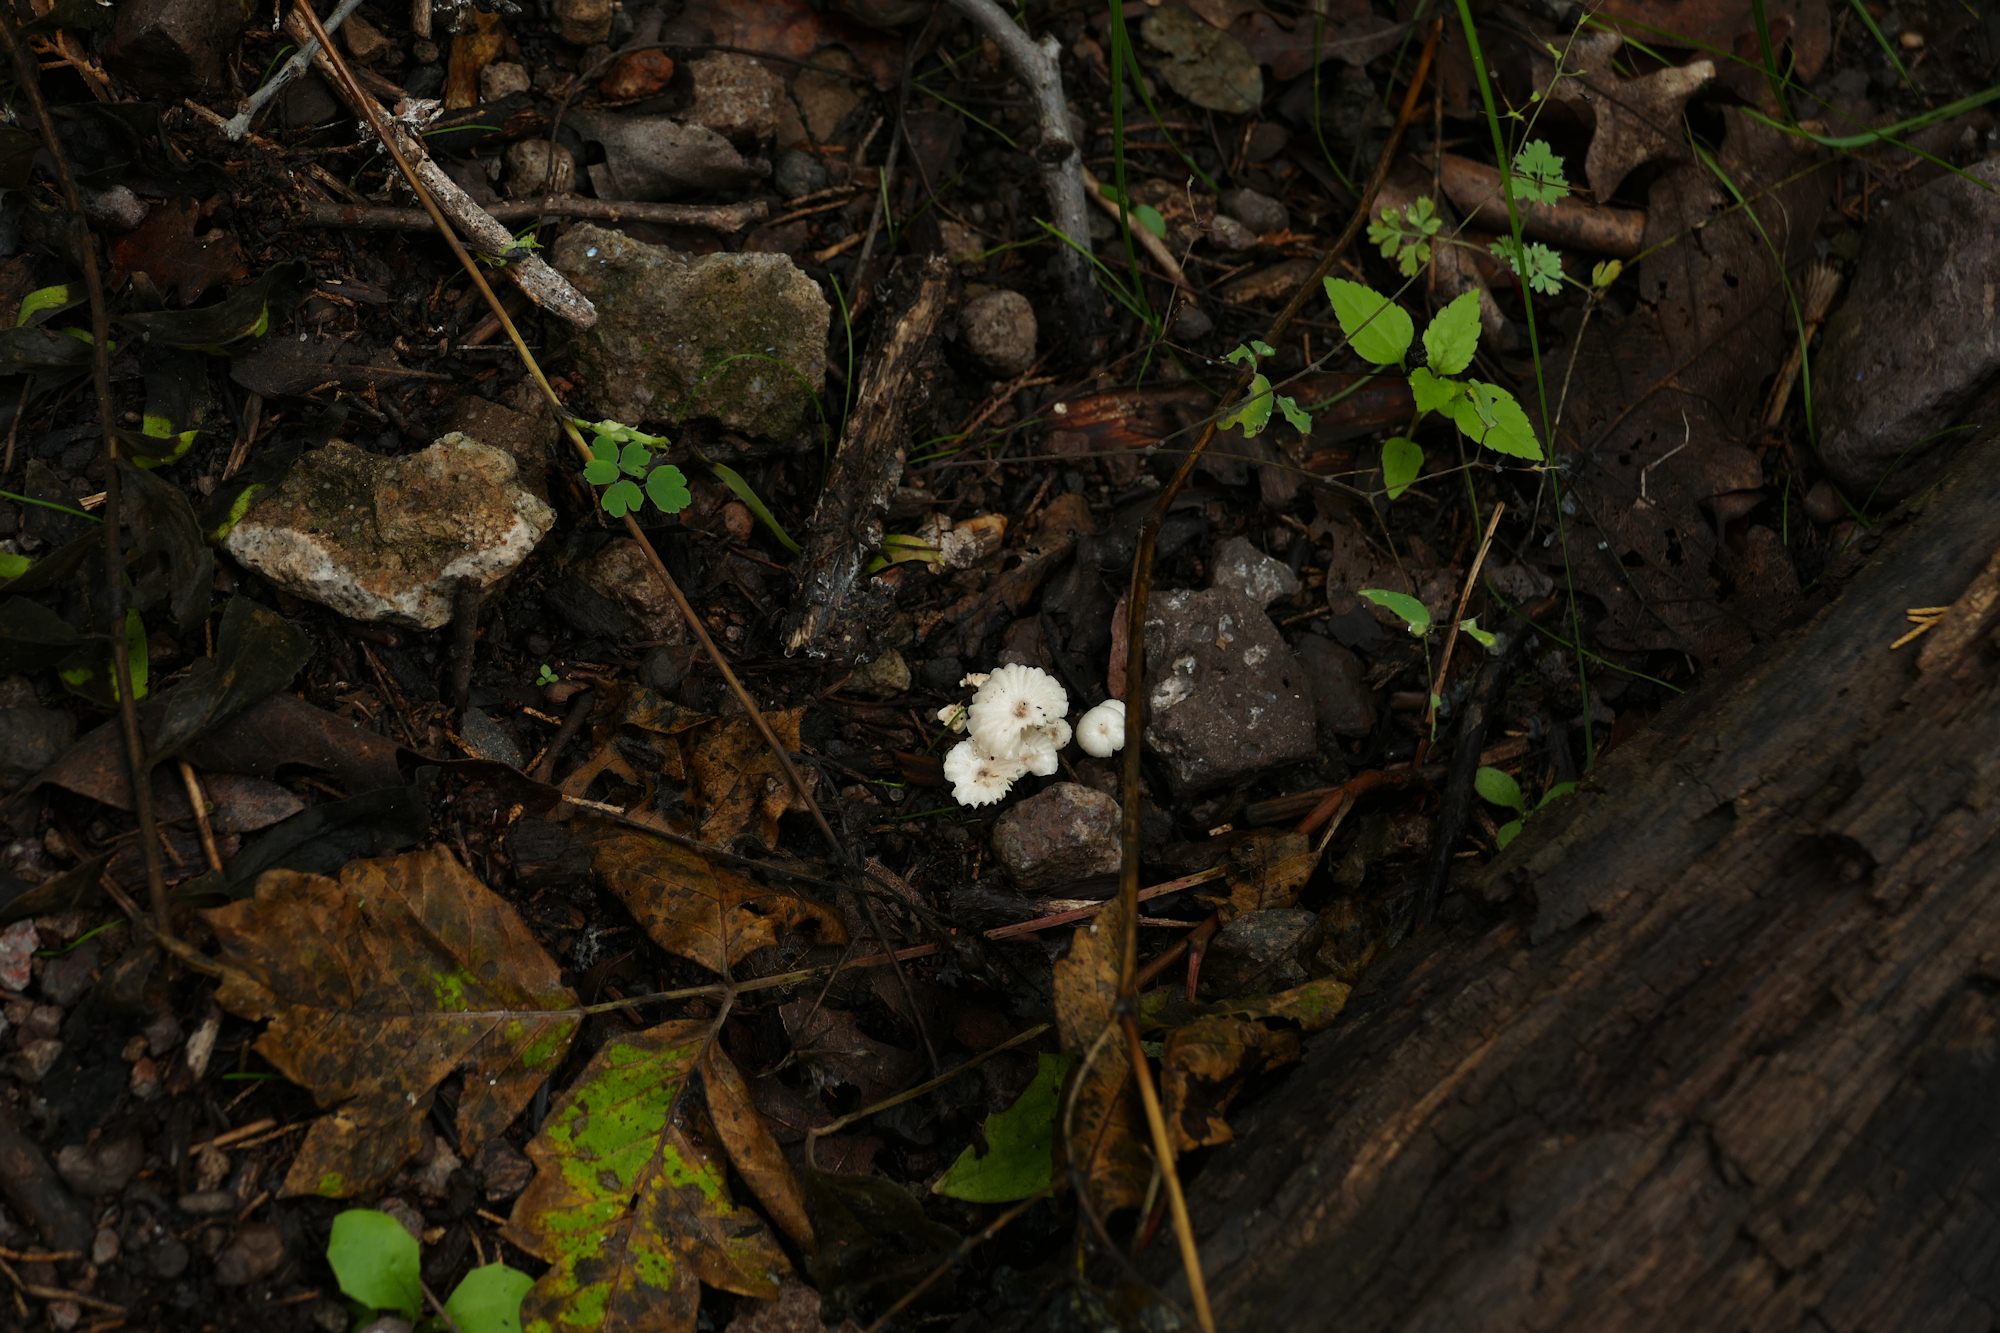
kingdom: Fungi
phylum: Basidiomycota
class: Agaricomycetes
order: Agaricales
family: Marasmiaceae
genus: Marasmius
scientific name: Marasmius rotula
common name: Collared parachute
